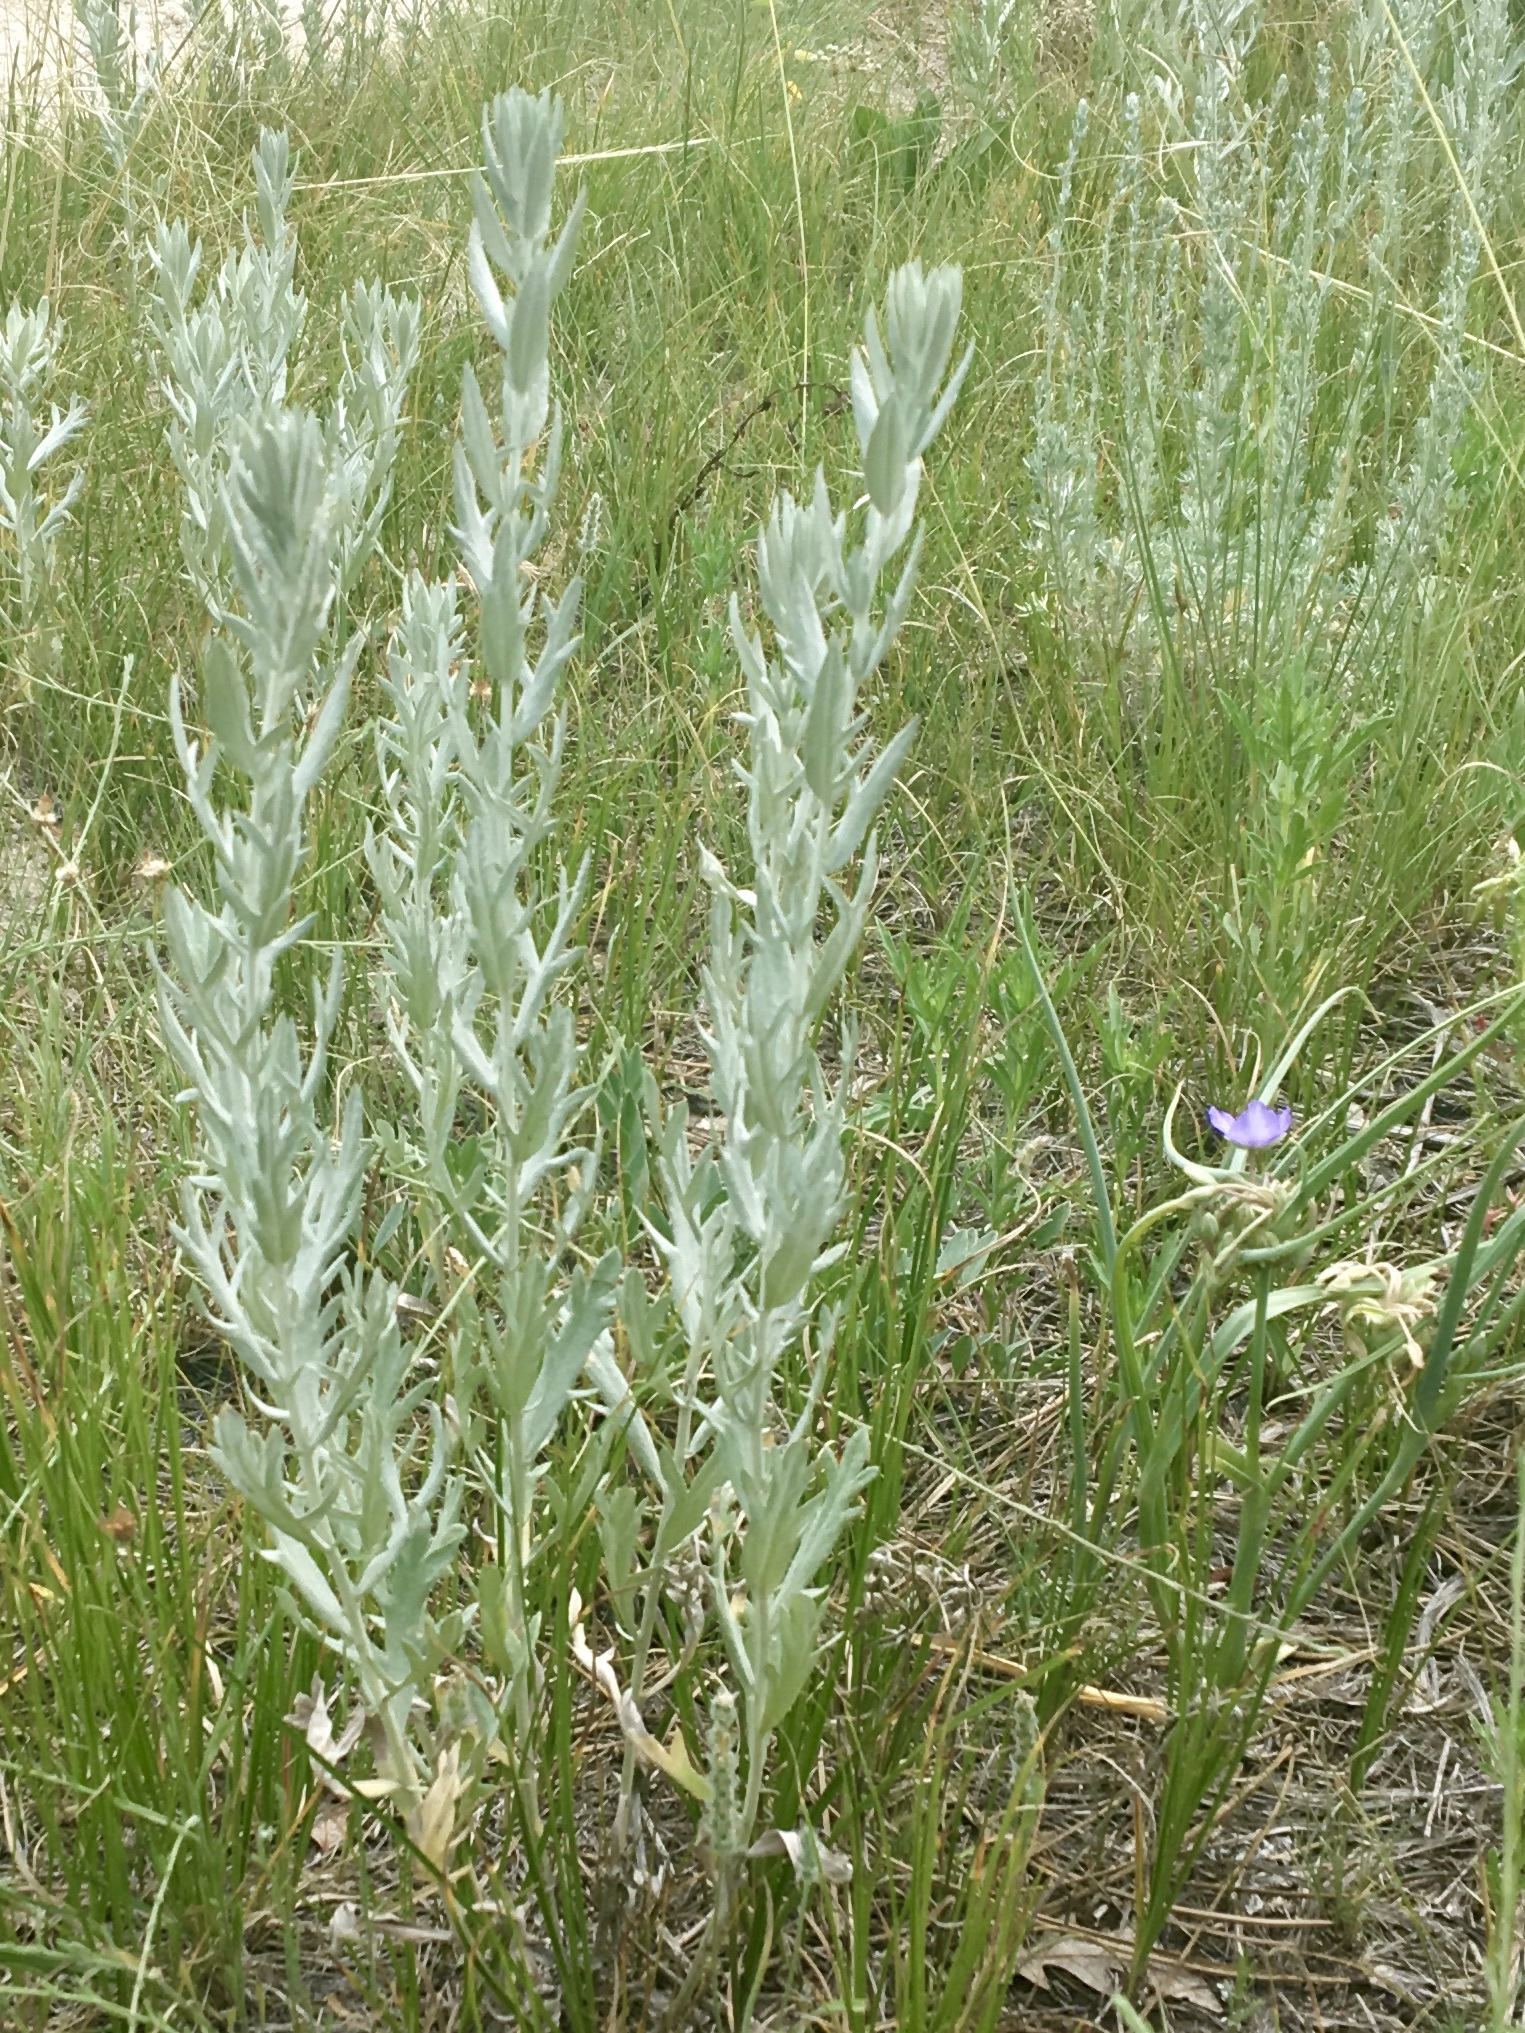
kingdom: Plantae
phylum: Tracheophyta
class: Magnoliopsida
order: Asterales
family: Asteraceae
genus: Artemisia
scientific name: Artemisia ludoviciana
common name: Western mugwort
